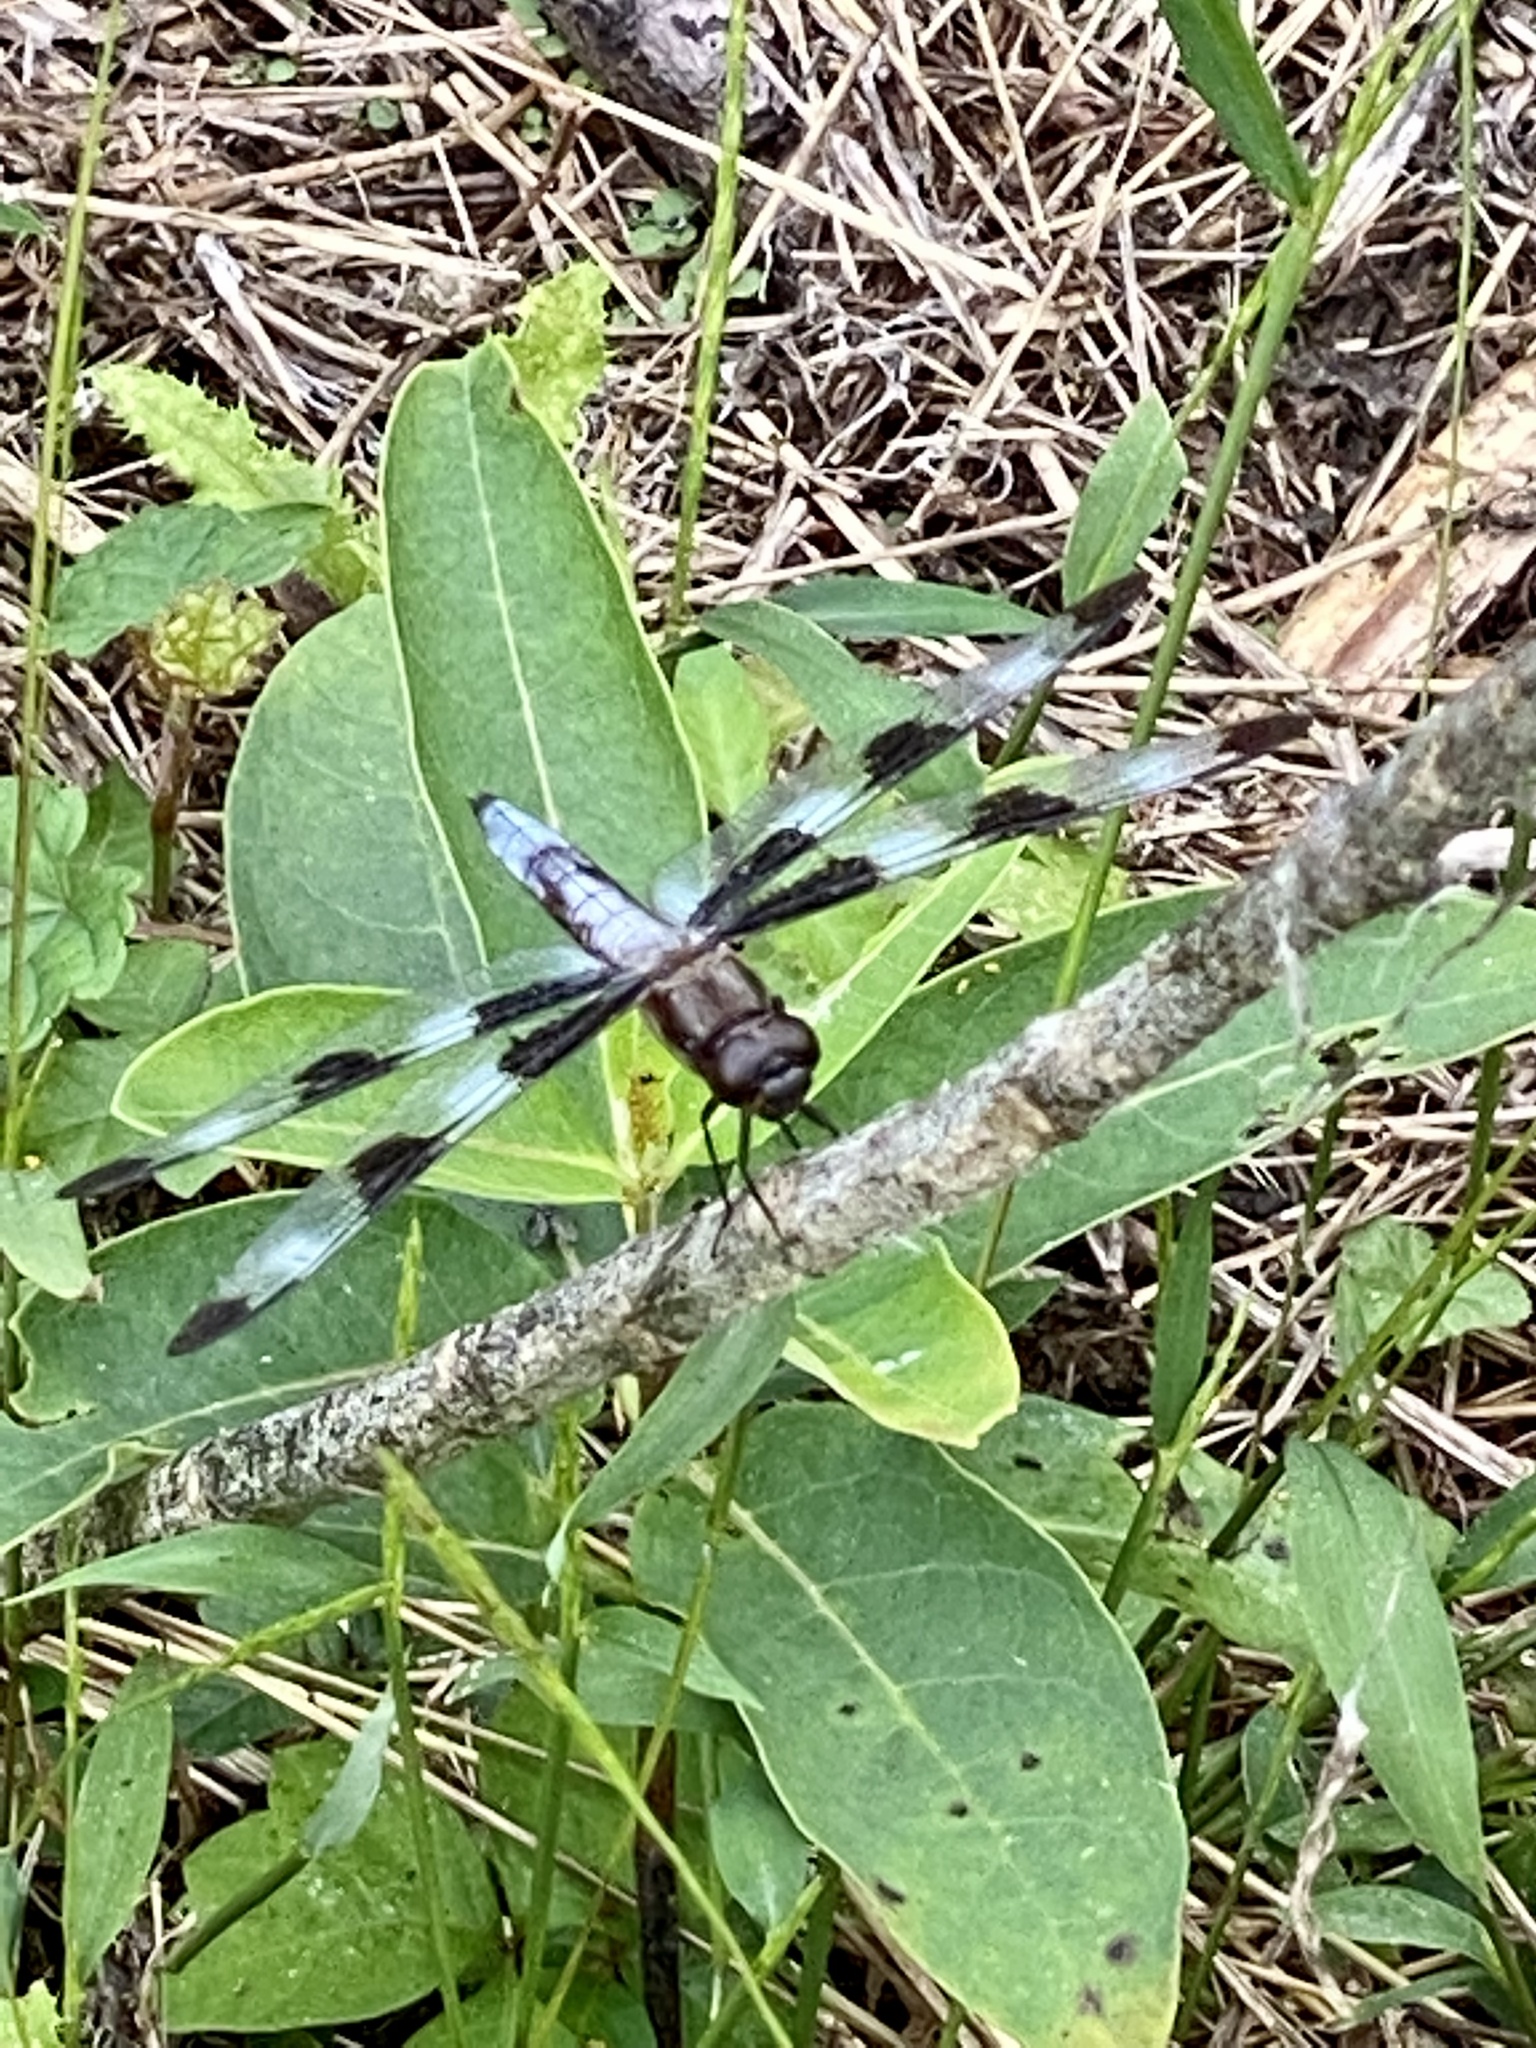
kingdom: Animalia
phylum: Arthropoda
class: Insecta
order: Odonata
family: Libellulidae
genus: Libellula
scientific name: Libellula pulchella
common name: Twelve-spotted skimmer
